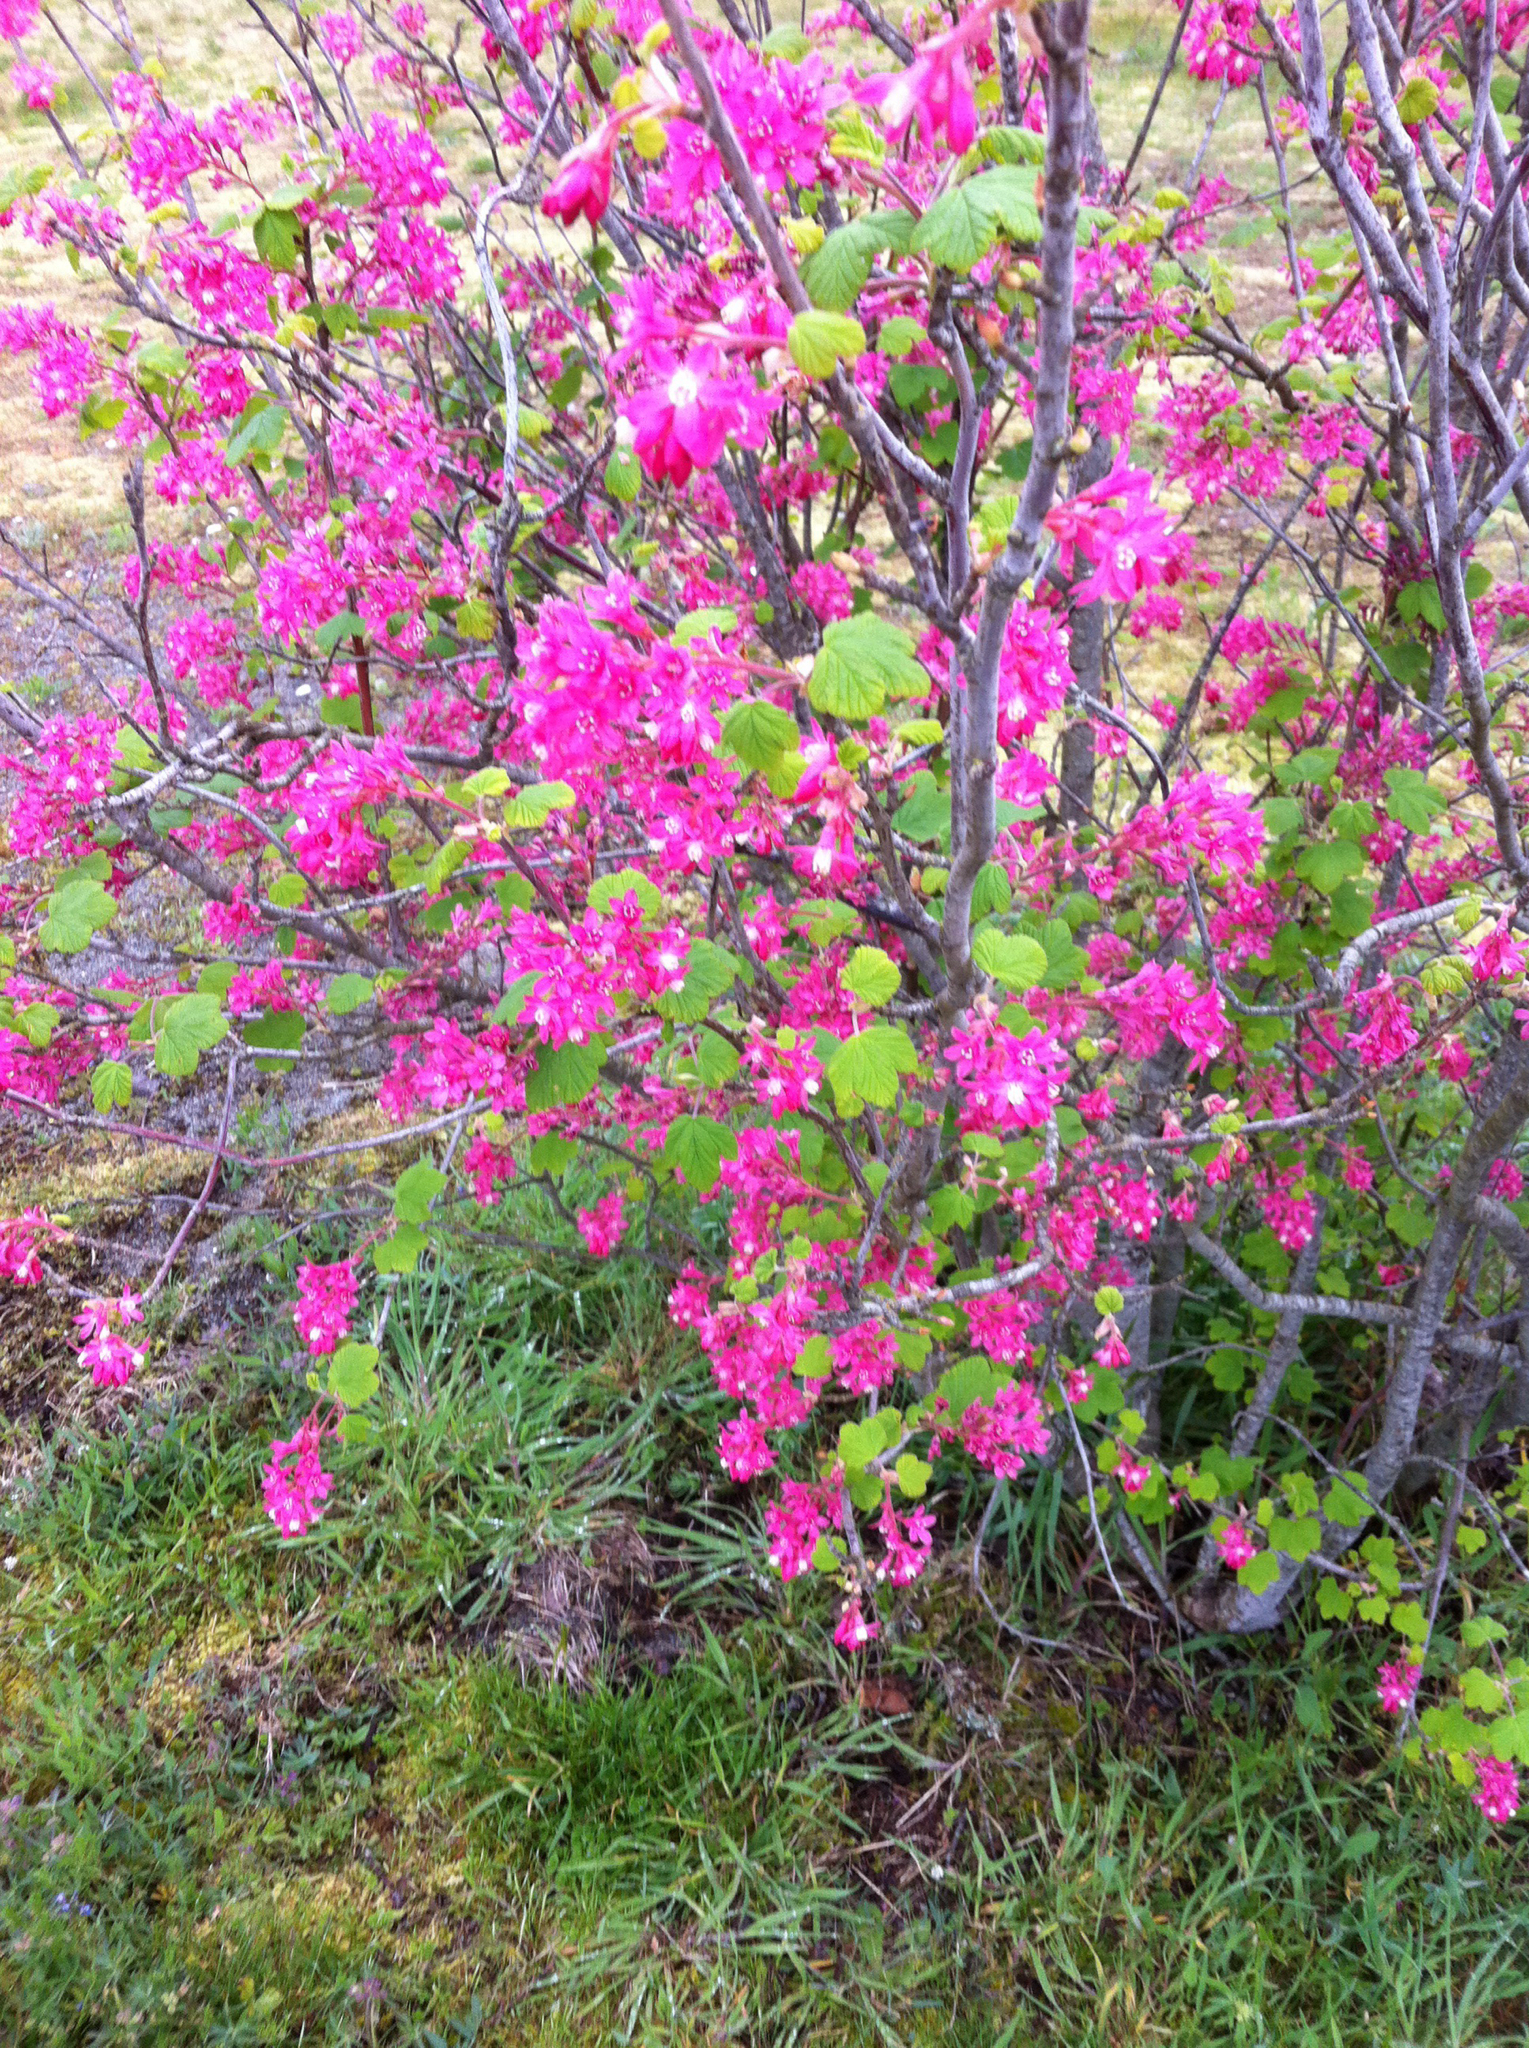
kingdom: Plantae
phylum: Tracheophyta
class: Magnoliopsida
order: Saxifragales
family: Grossulariaceae
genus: Ribes
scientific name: Ribes sanguineum
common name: Flowering currant
